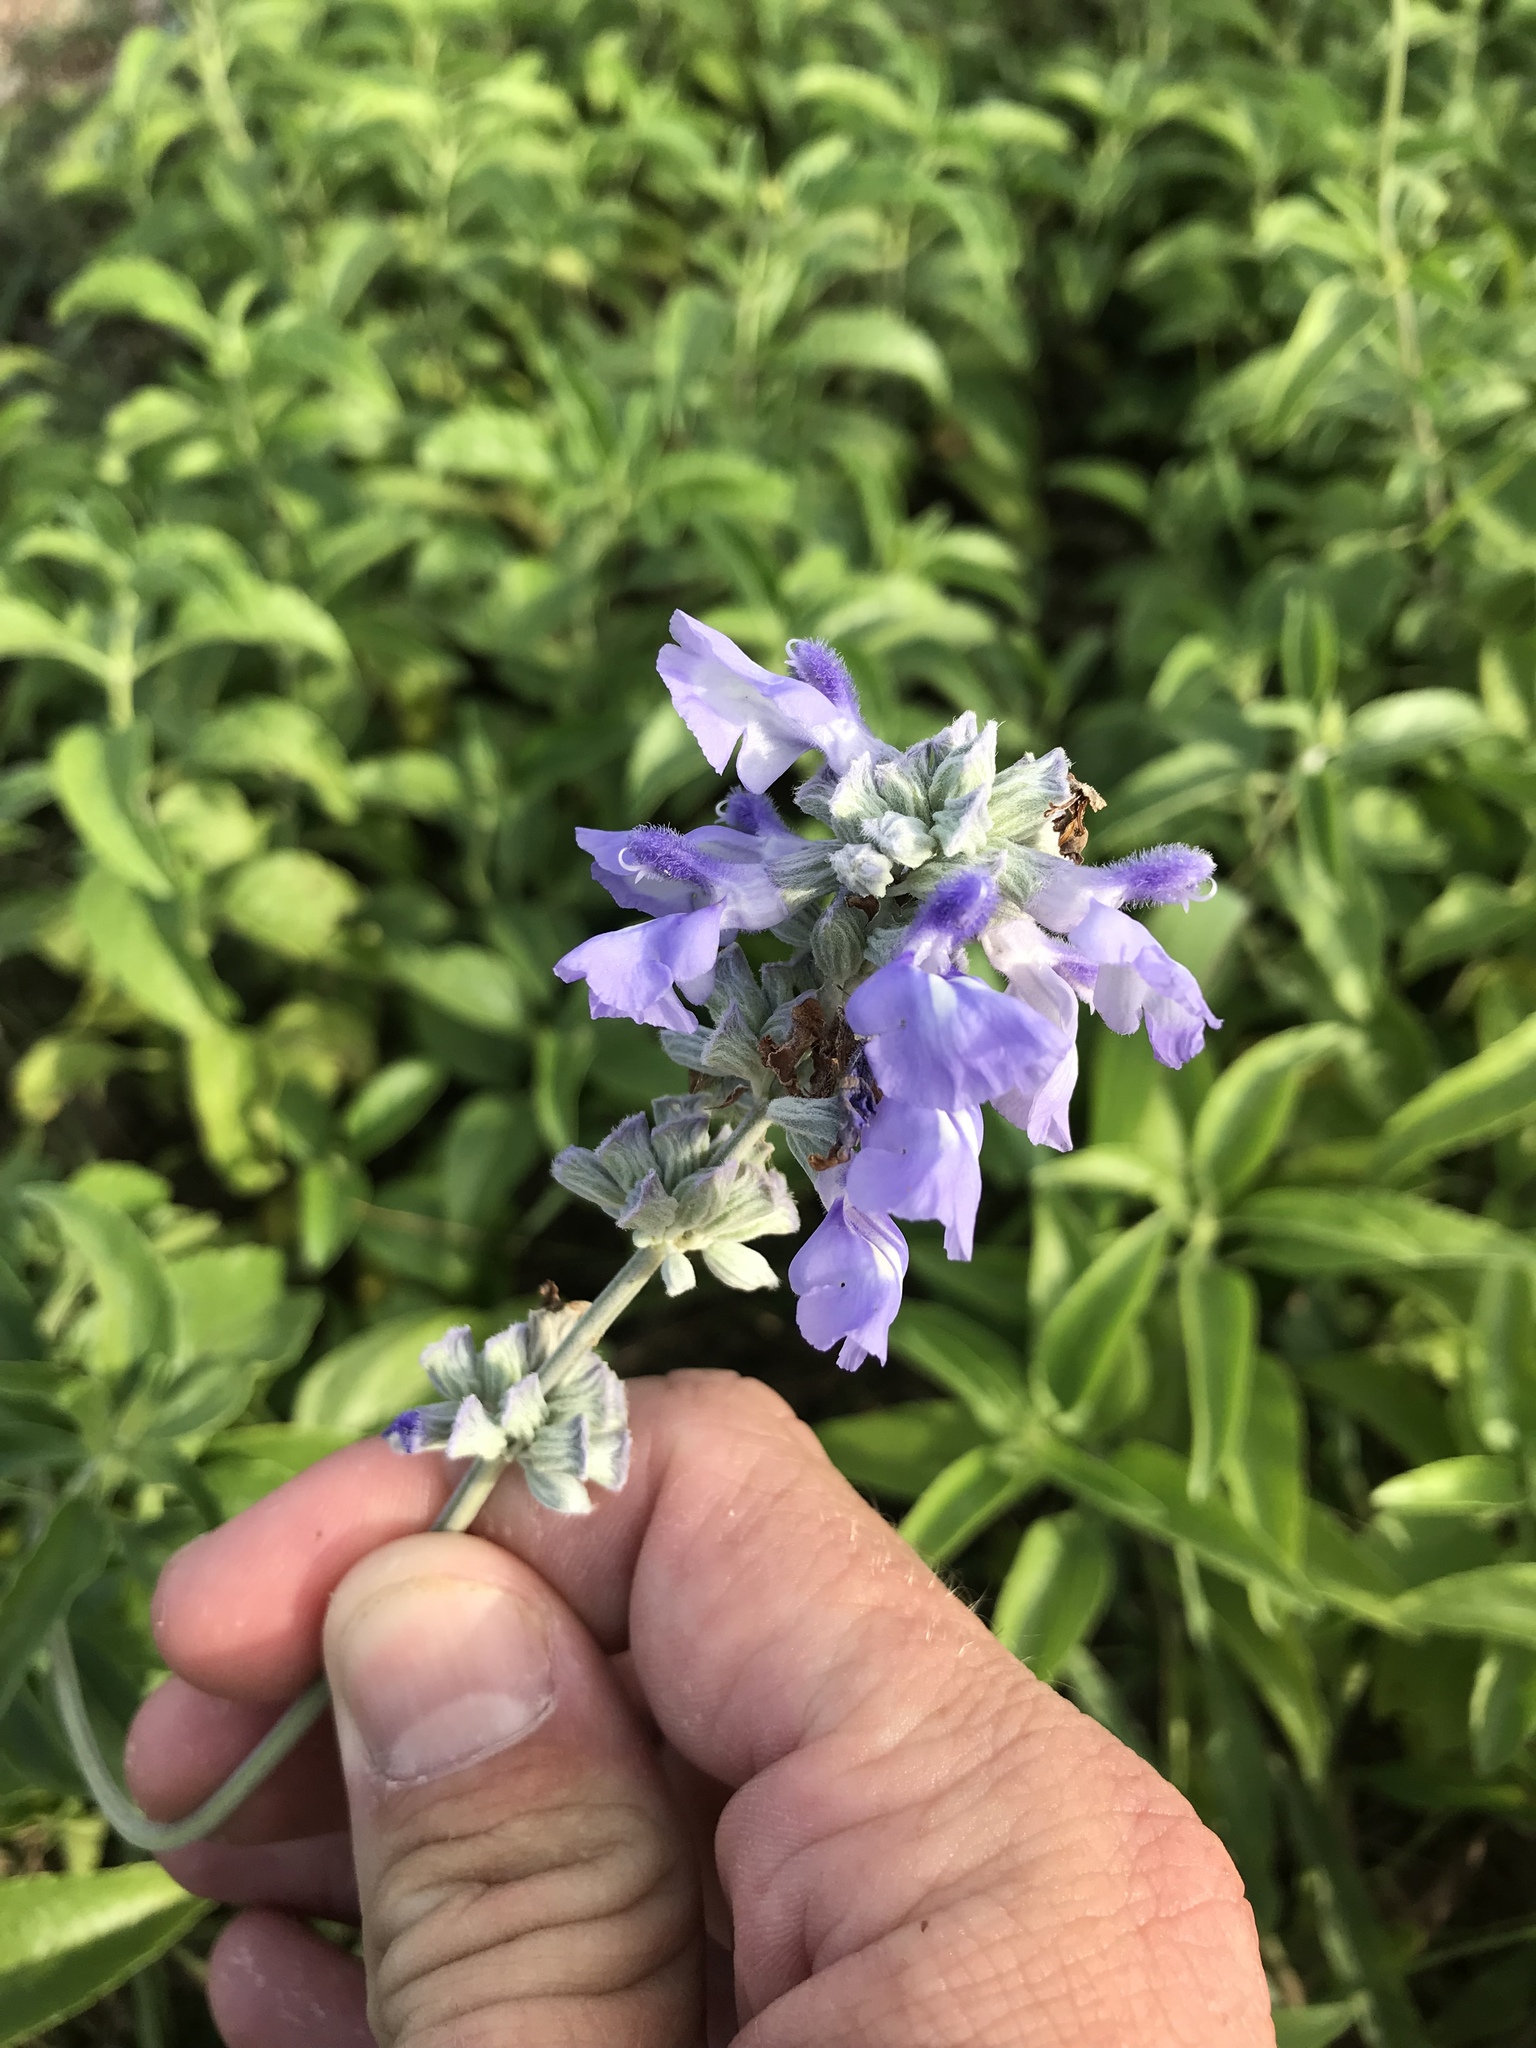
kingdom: Plantae
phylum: Tracheophyta
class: Magnoliopsida
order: Lamiales
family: Lamiaceae
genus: Salvia
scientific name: Salvia farinacea
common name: Mealy sage
